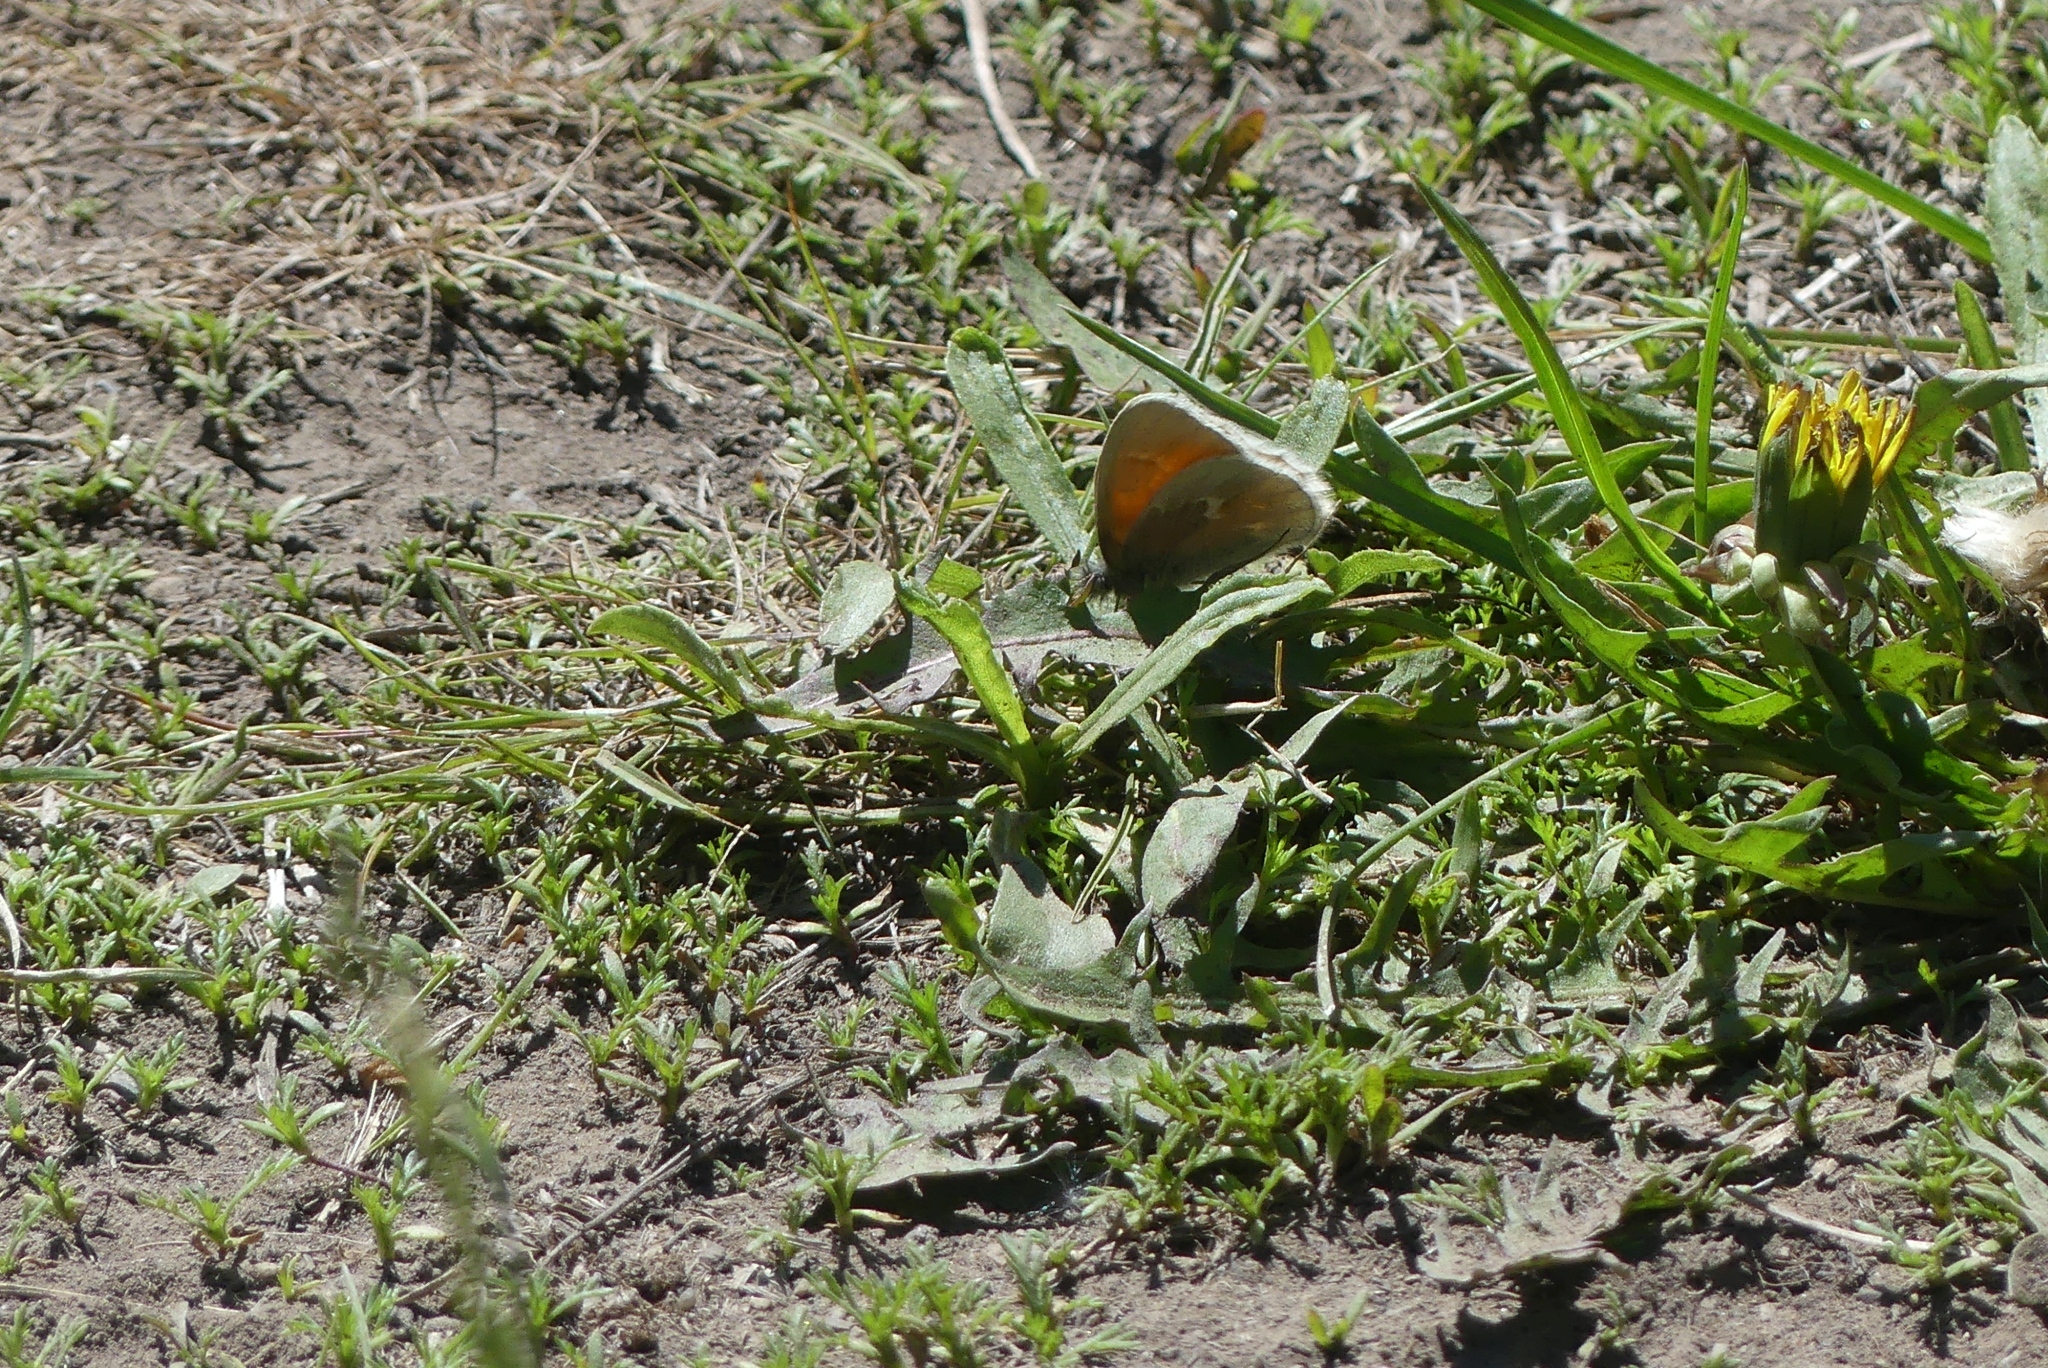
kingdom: Animalia
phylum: Arthropoda
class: Insecta
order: Lepidoptera
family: Nymphalidae
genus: Coenonympha
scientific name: Coenonympha california
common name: Common ringlet
